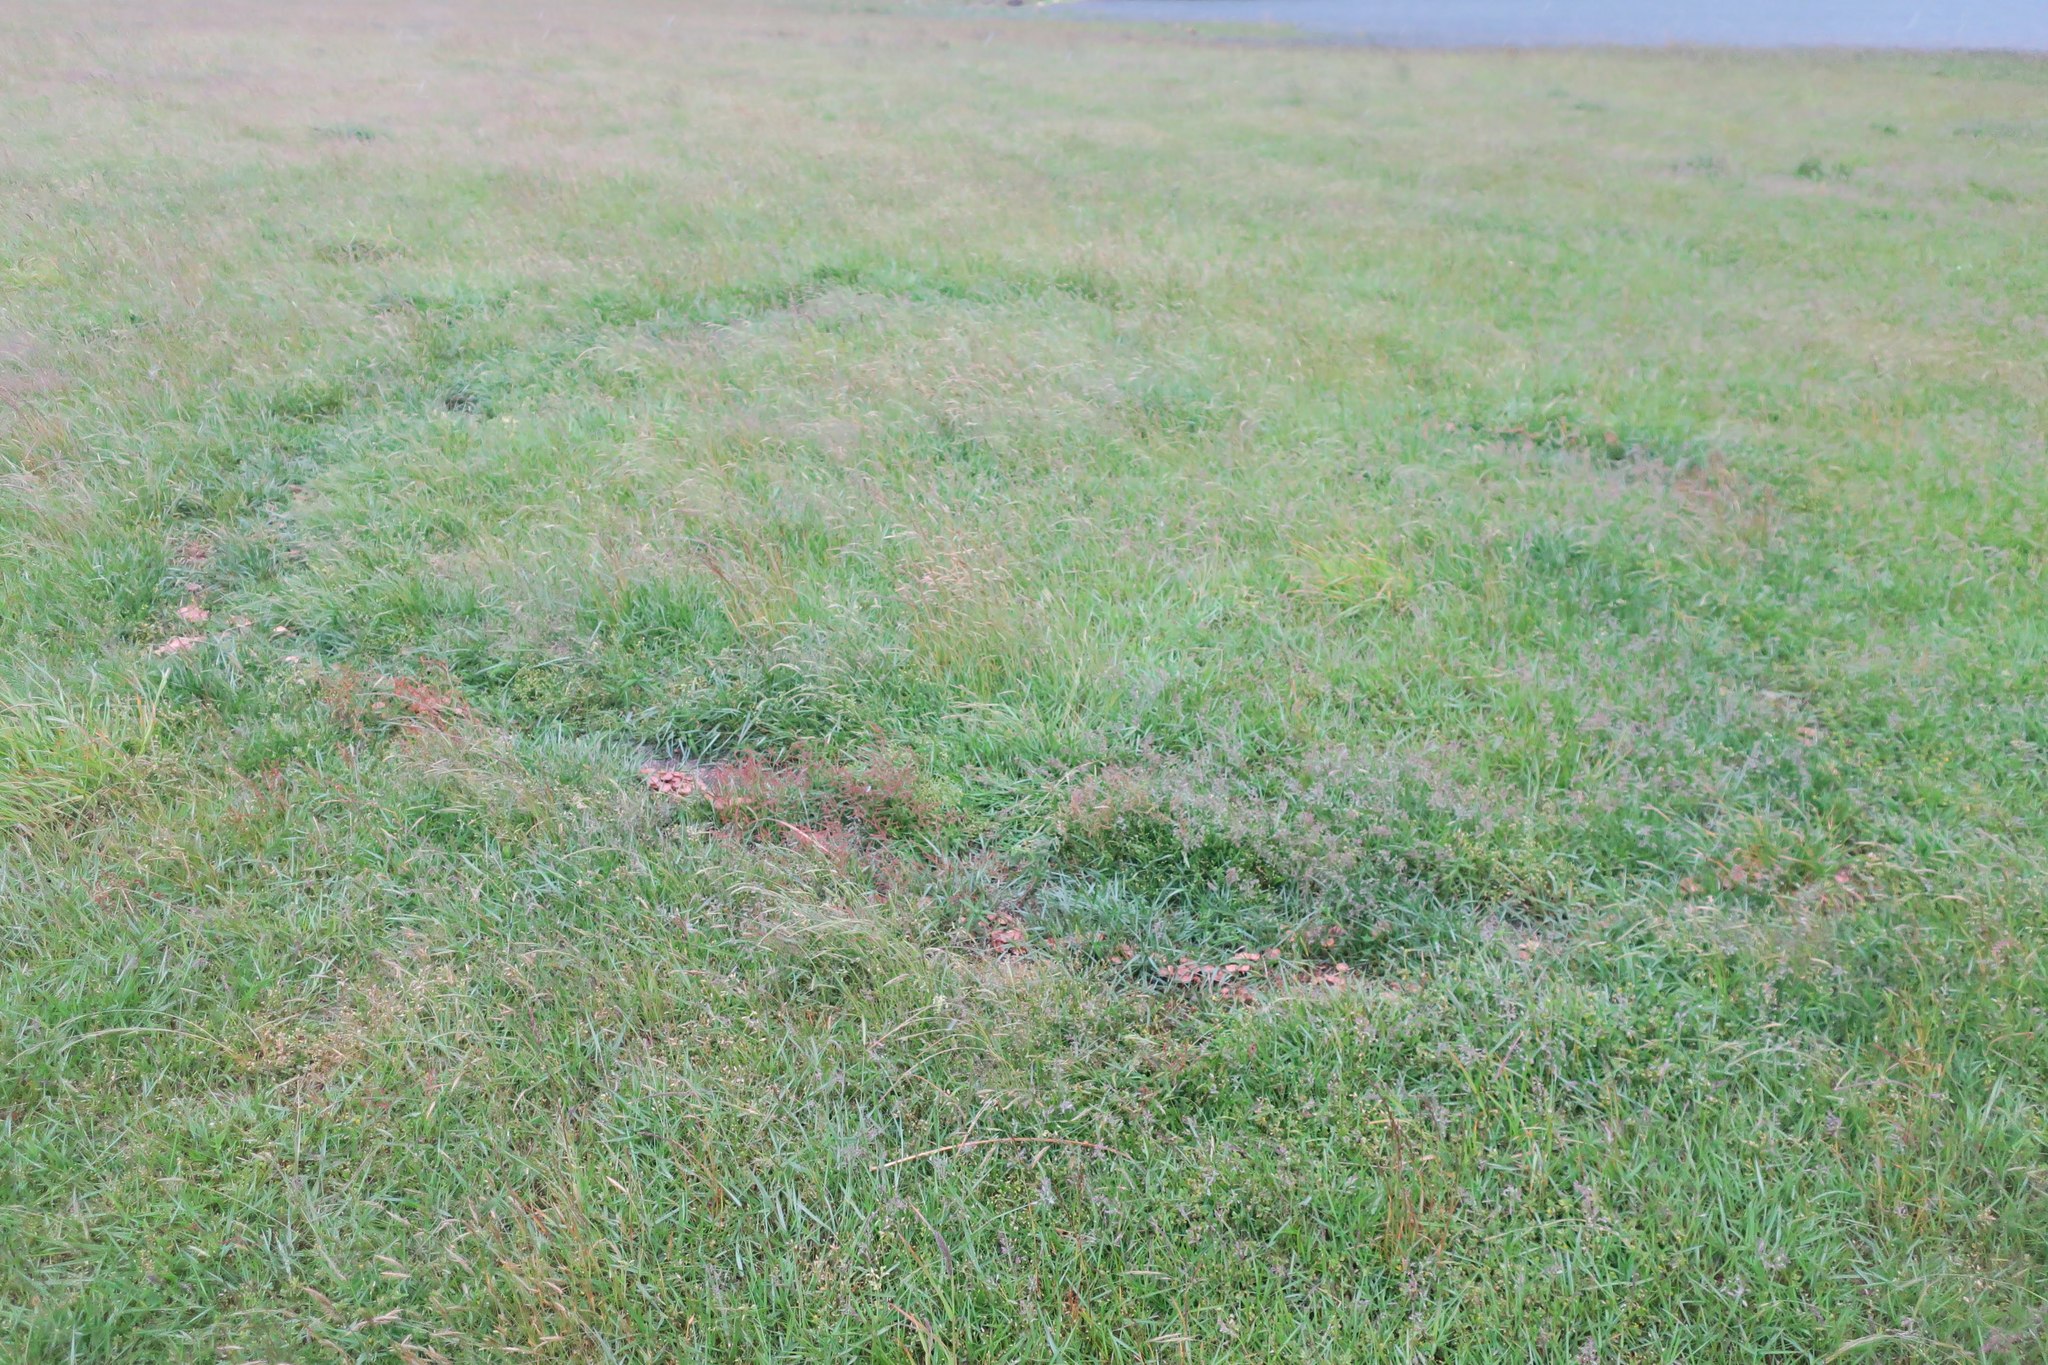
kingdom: Fungi
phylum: Basidiomycota
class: Agaricomycetes
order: Agaricales
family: Marasmiaceae
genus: Marasmius
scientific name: Marasmius oreades
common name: Fairy ring champignon
